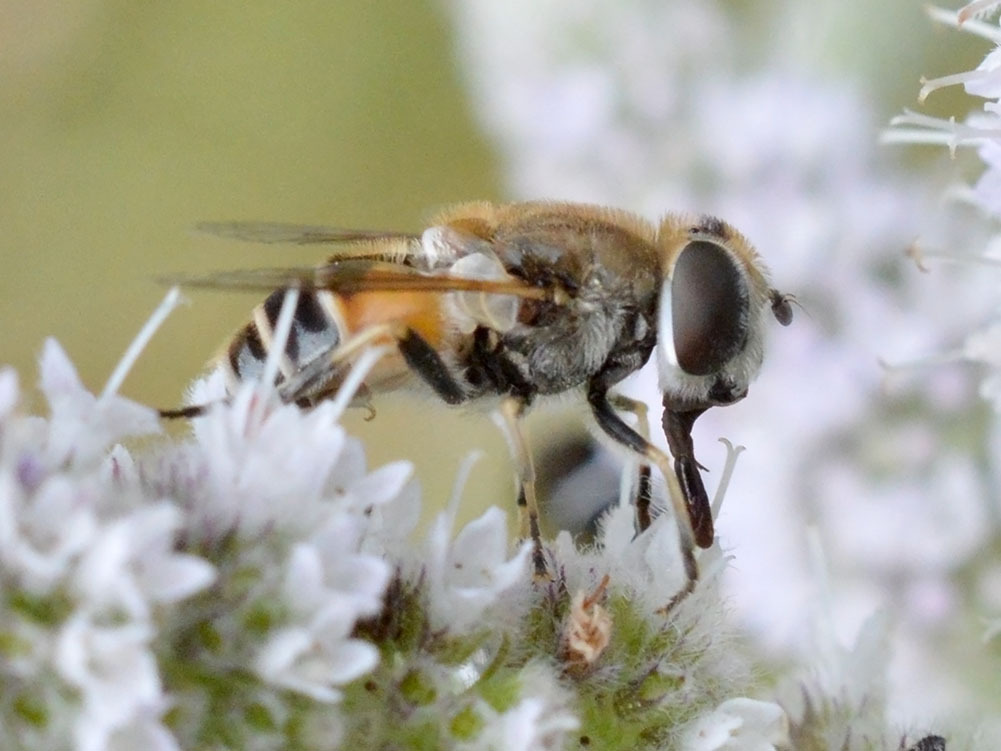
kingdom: Animalia
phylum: Arthropoda
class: Insecta
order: Diptera
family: Syrphidae
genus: Eristalis
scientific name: Eristalis arbustorum
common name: Hover fly
